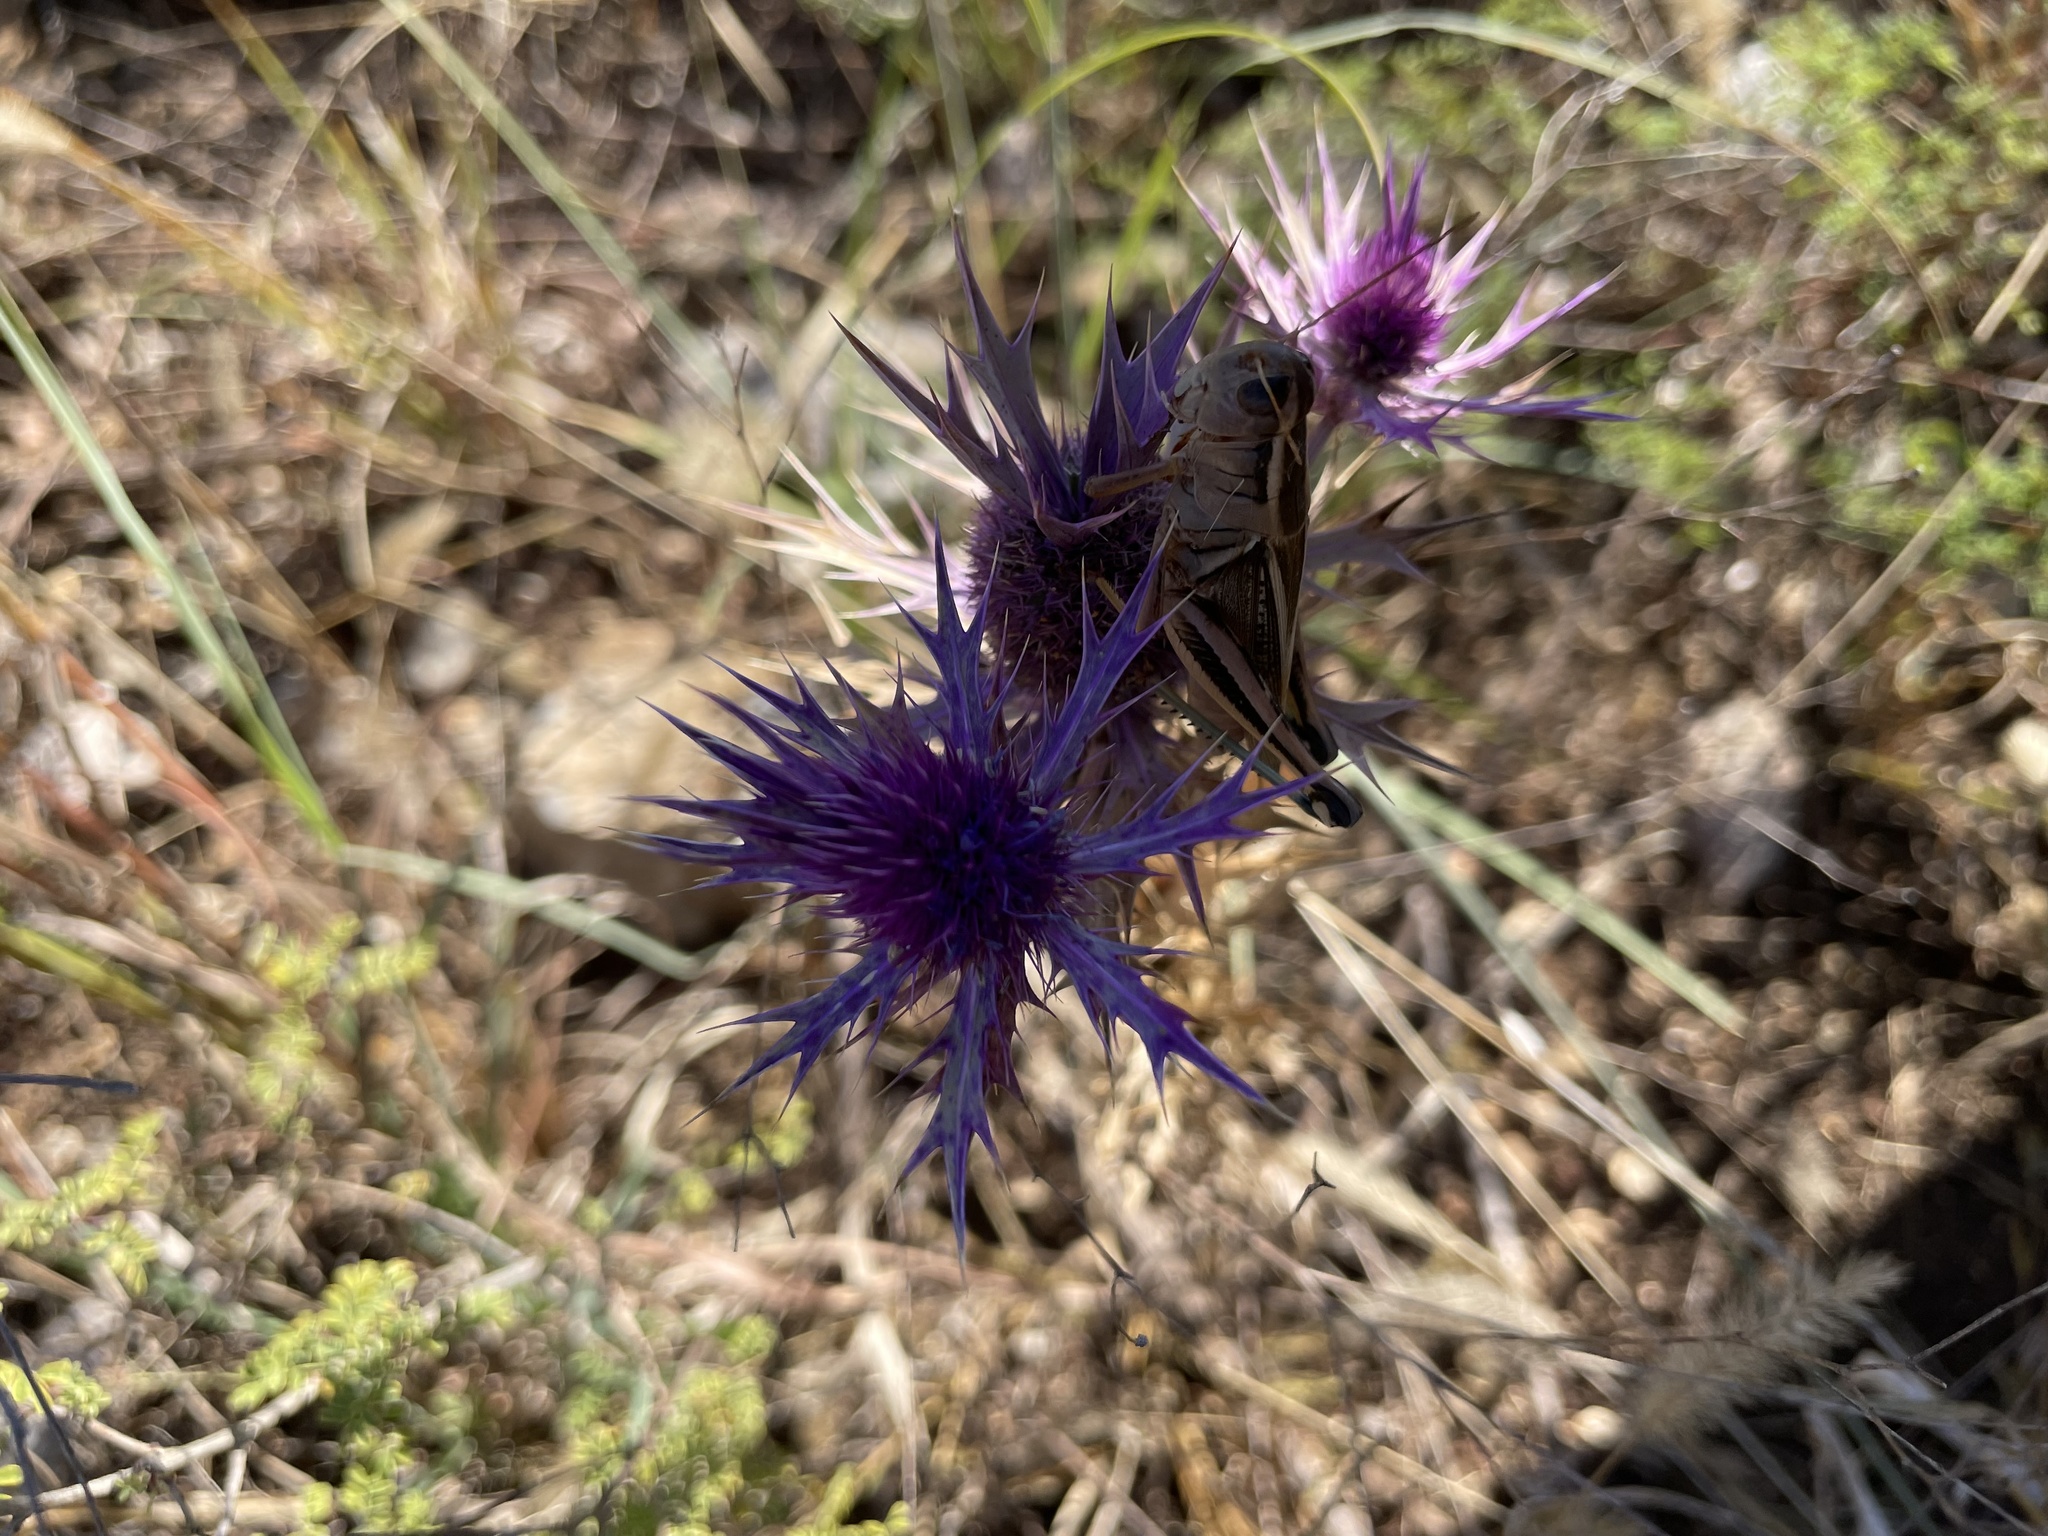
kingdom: Animalia
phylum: Arthropoda
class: Insecta
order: Orthoptera
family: Acrididae
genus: Melanoplus
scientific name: Melanoplus bivittatus
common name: Two-striped grasshopper
